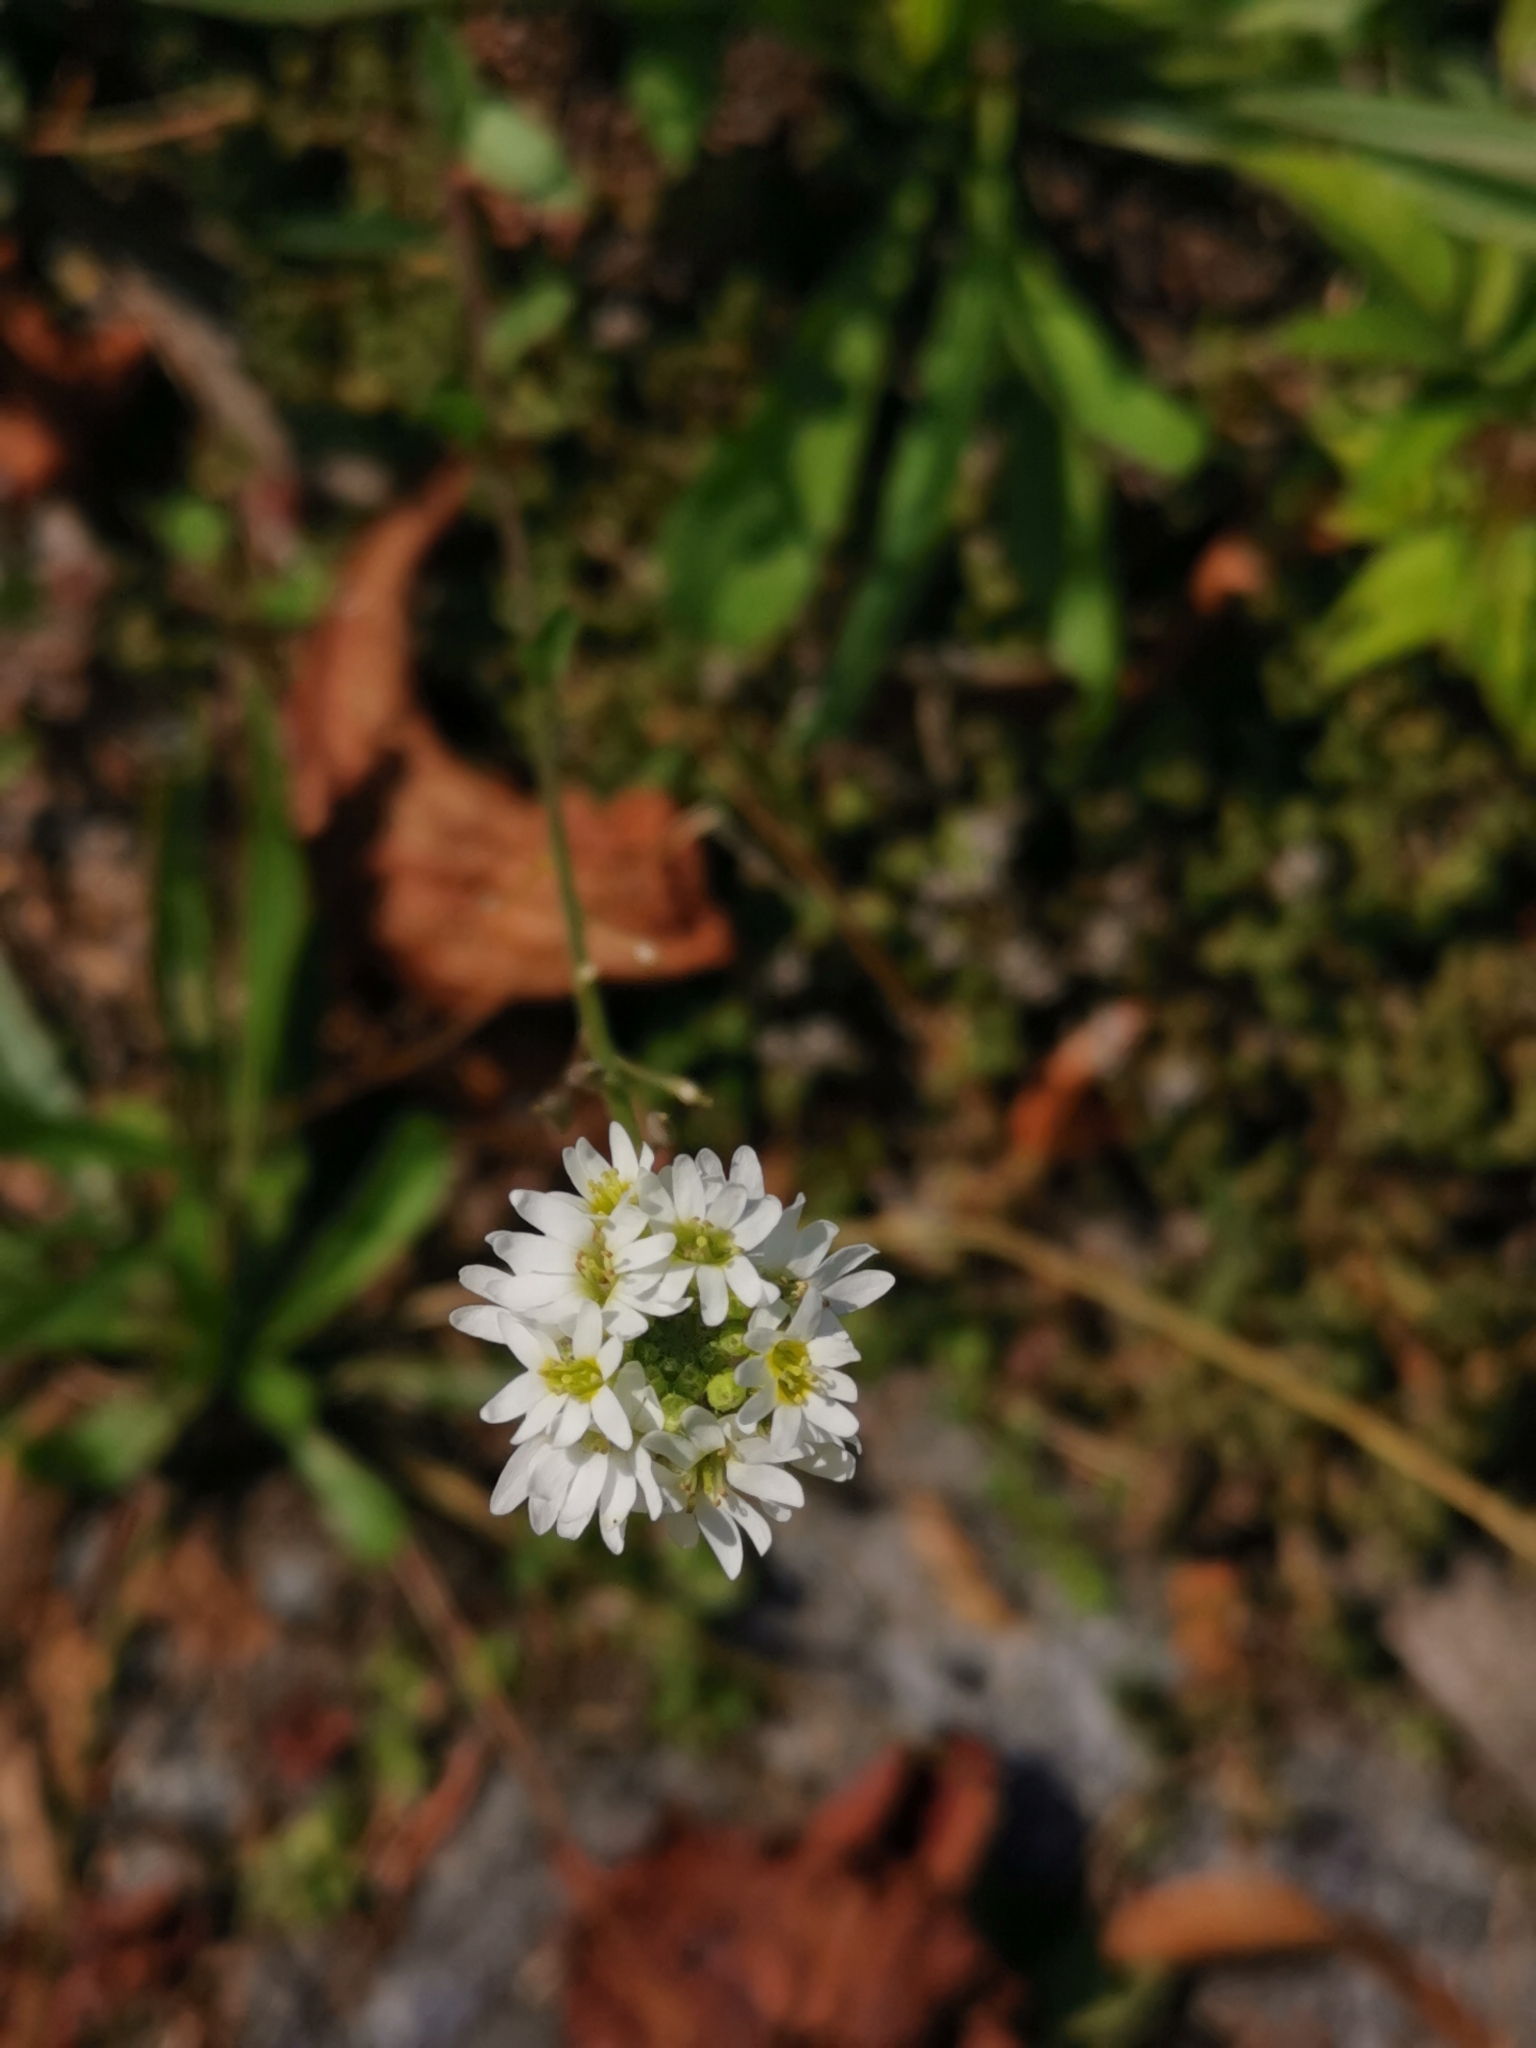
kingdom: Plantae
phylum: Tracheophyta
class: Magnoliopsida
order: Brassicales
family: Brassicaceae
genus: Berteroa
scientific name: Berteroa incana
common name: Hoary alison
